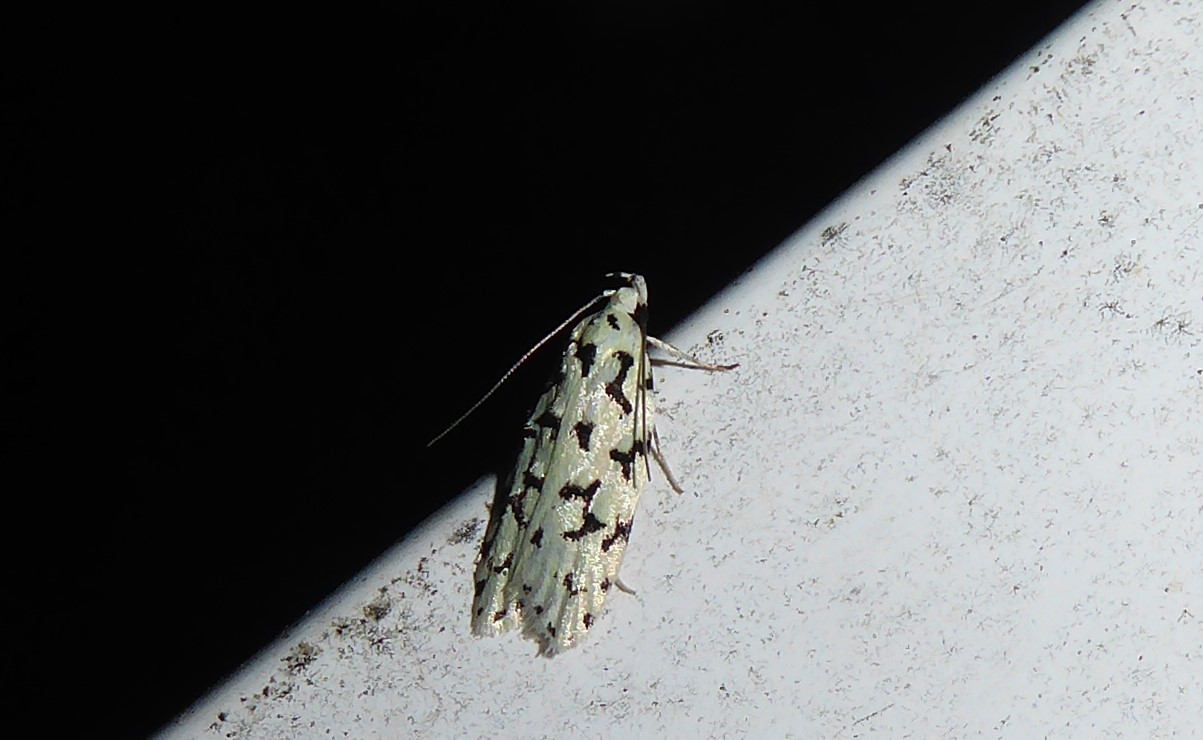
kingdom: Animalia
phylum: Arthropoda
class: Insecta
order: Lepidoptera
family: Oecophoridae
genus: Izatha
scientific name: Izatha huttoni
